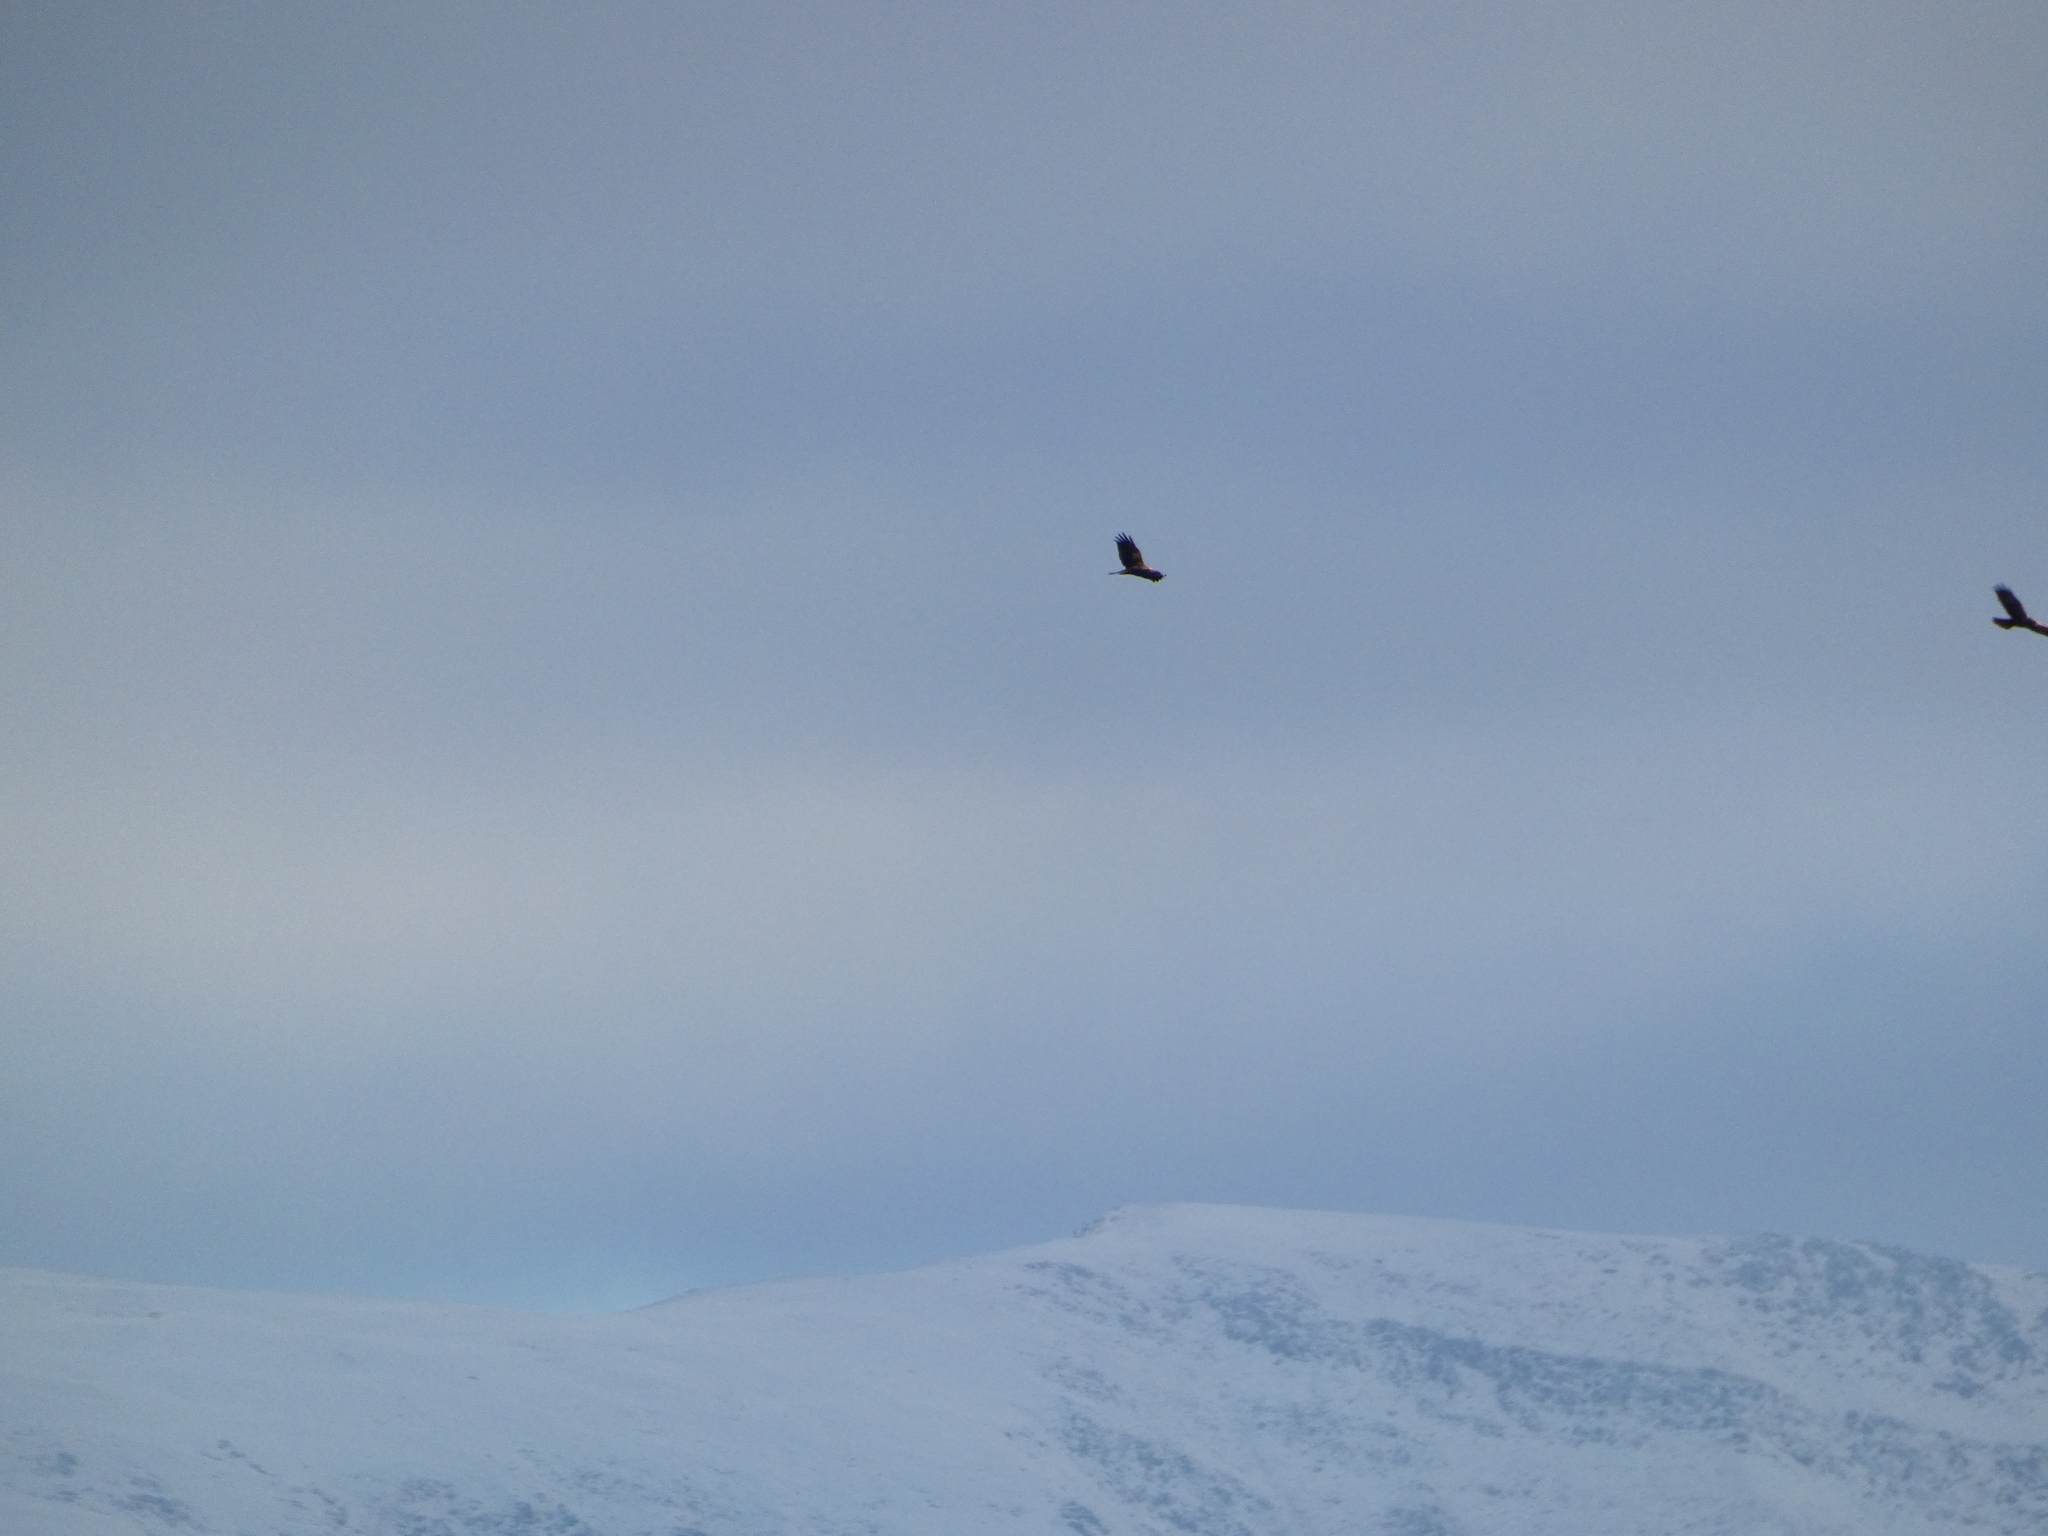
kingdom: Animalia
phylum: Chordata
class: Aves
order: Accipitriformes
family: Accipitridae
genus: Buteo
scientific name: Buteo buteo
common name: Common buzzard
